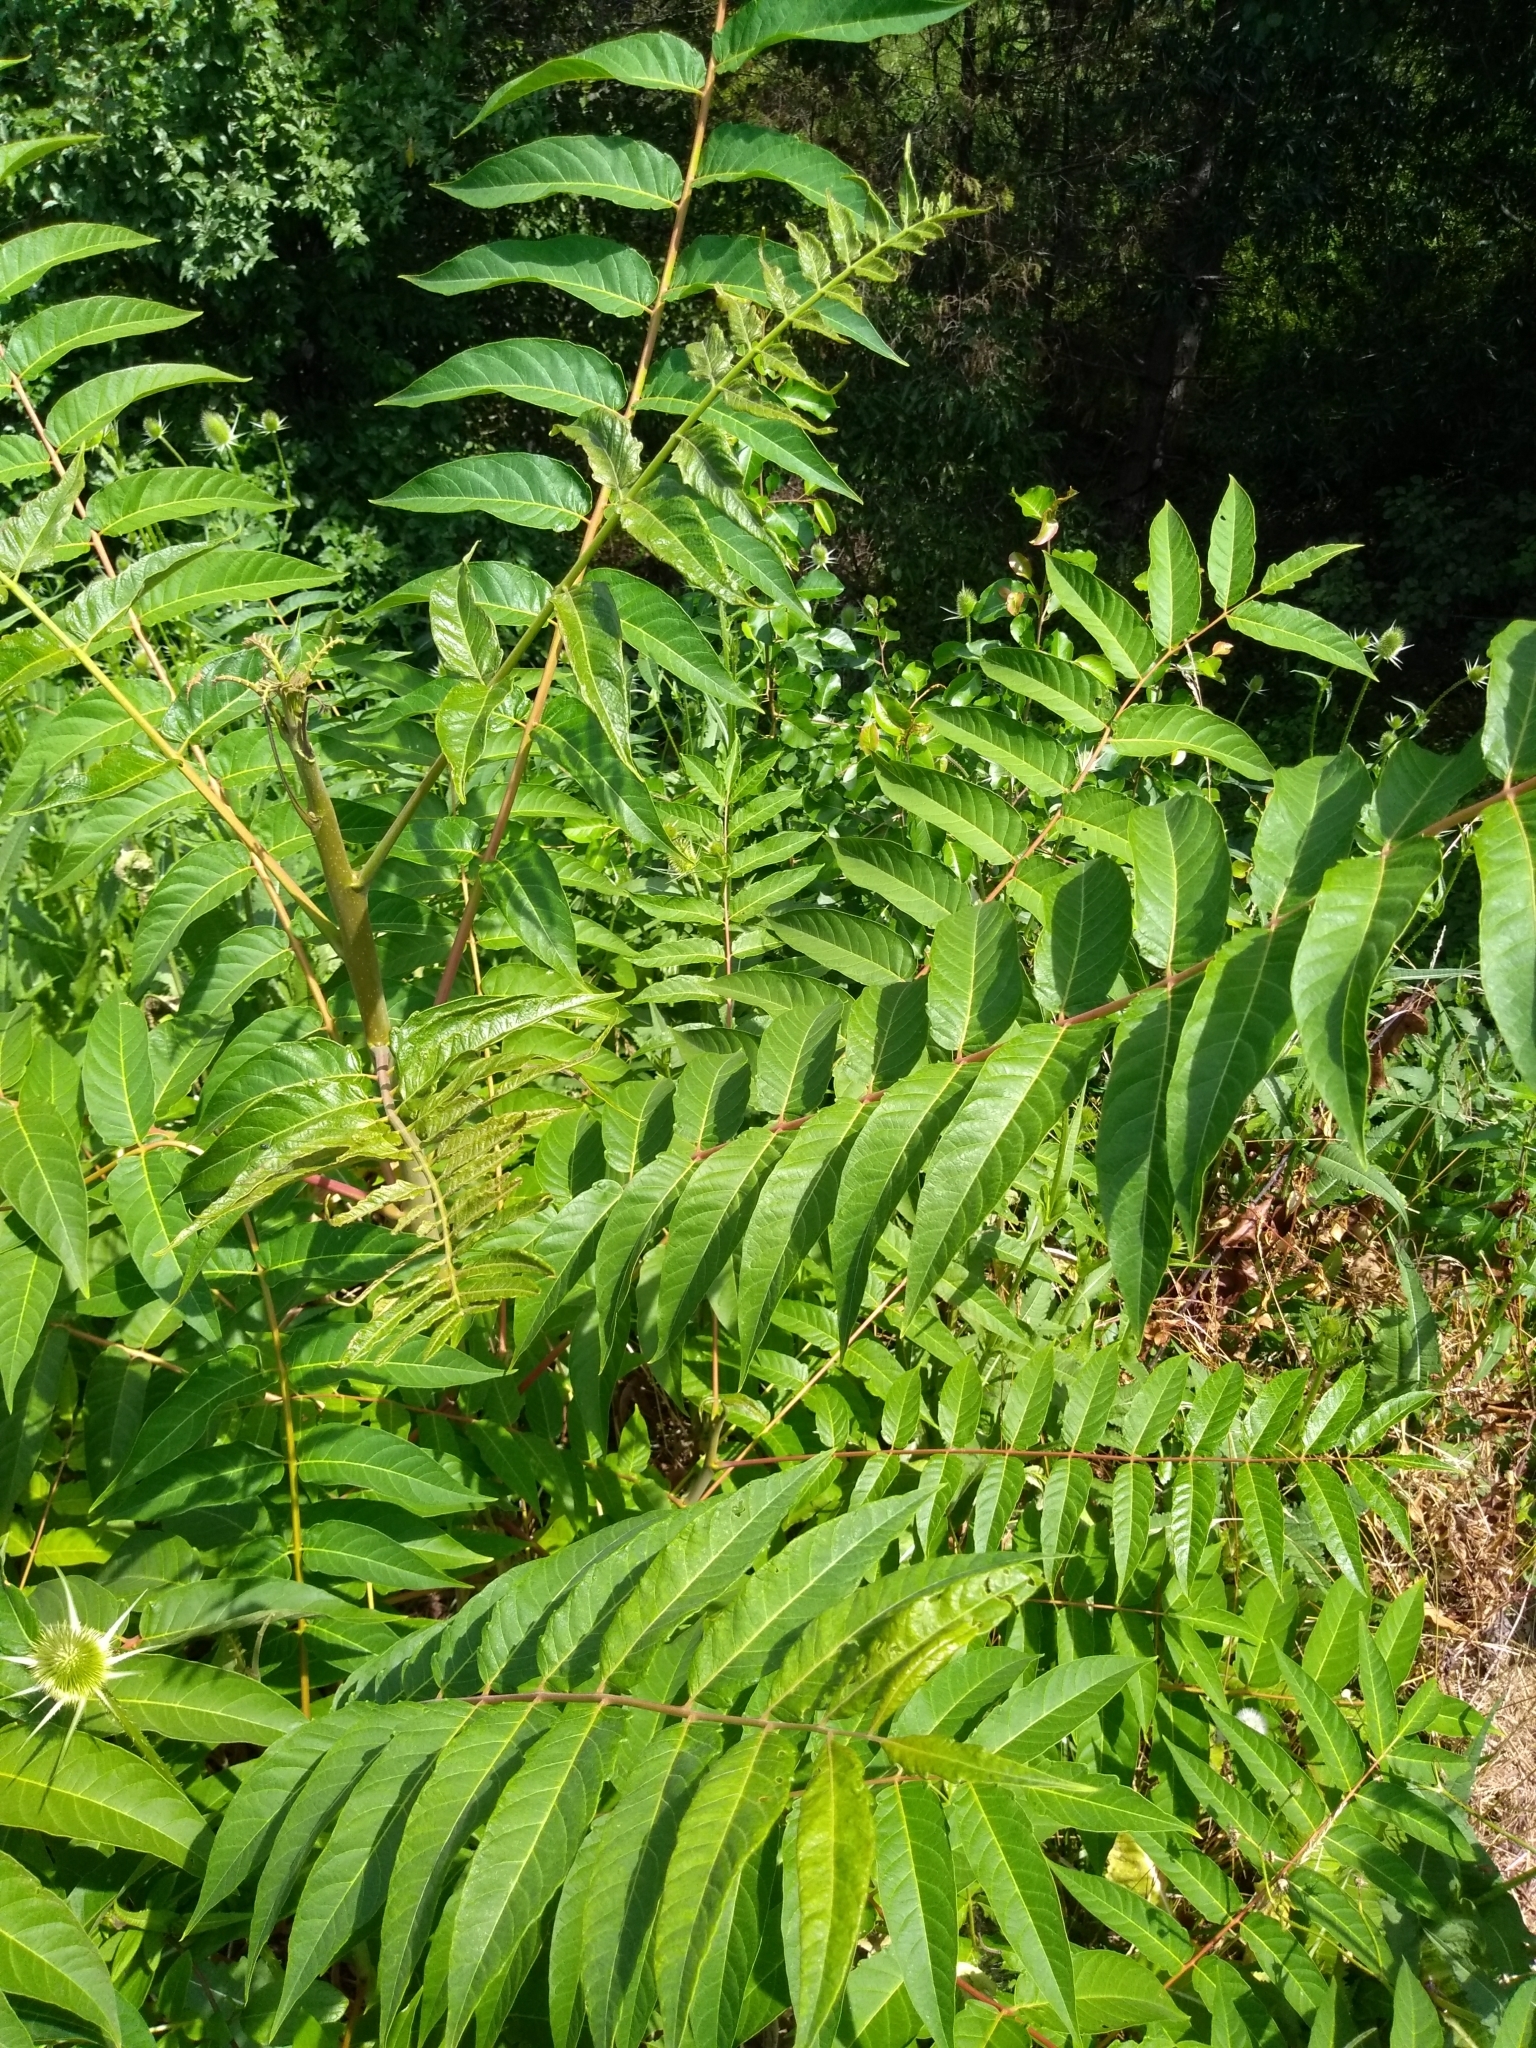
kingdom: Plantae
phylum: Tracheophyta
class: Magnoliopsida
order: Sapindales
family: Simaroubaceae
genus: Ailanthus
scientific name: Ailanthus altissima
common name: Tree-of-heaven
